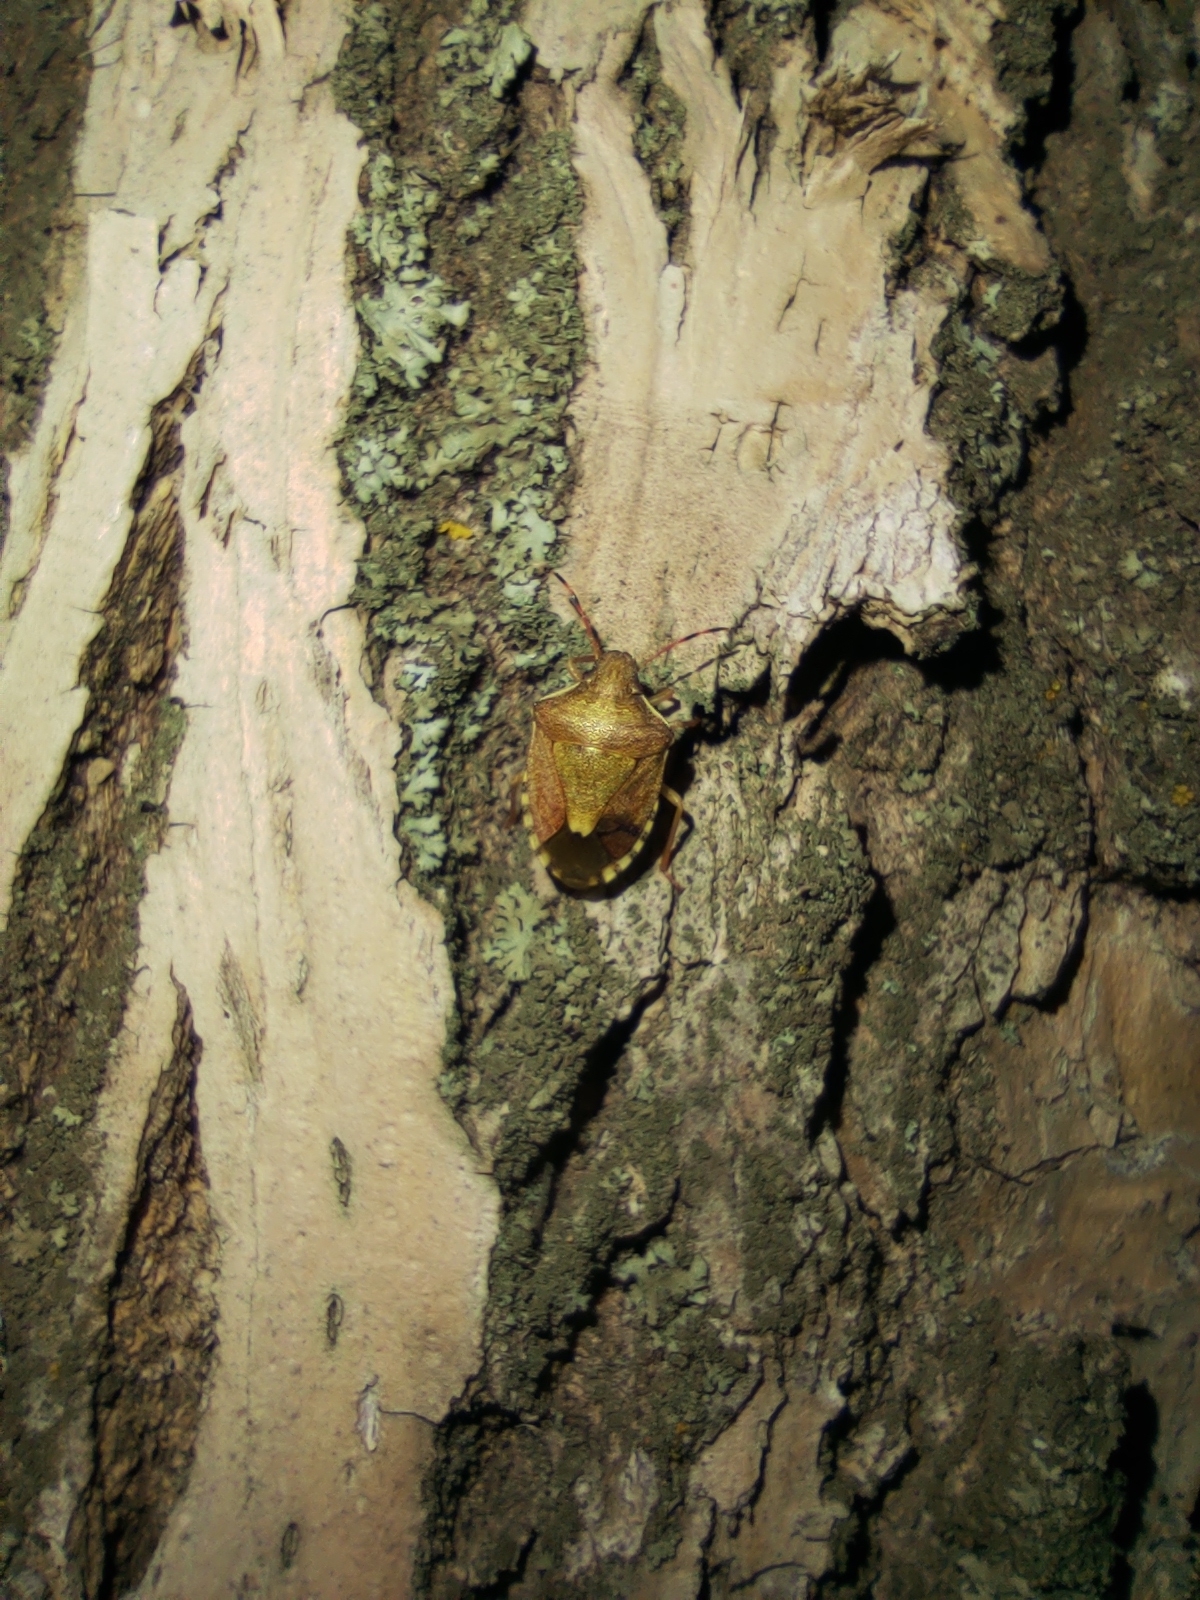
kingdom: Animalia
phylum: Arthropoda
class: Insecta
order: Hemiptera
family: Pentatomidae
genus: Holcostethus
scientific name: Holcostethus strictus
